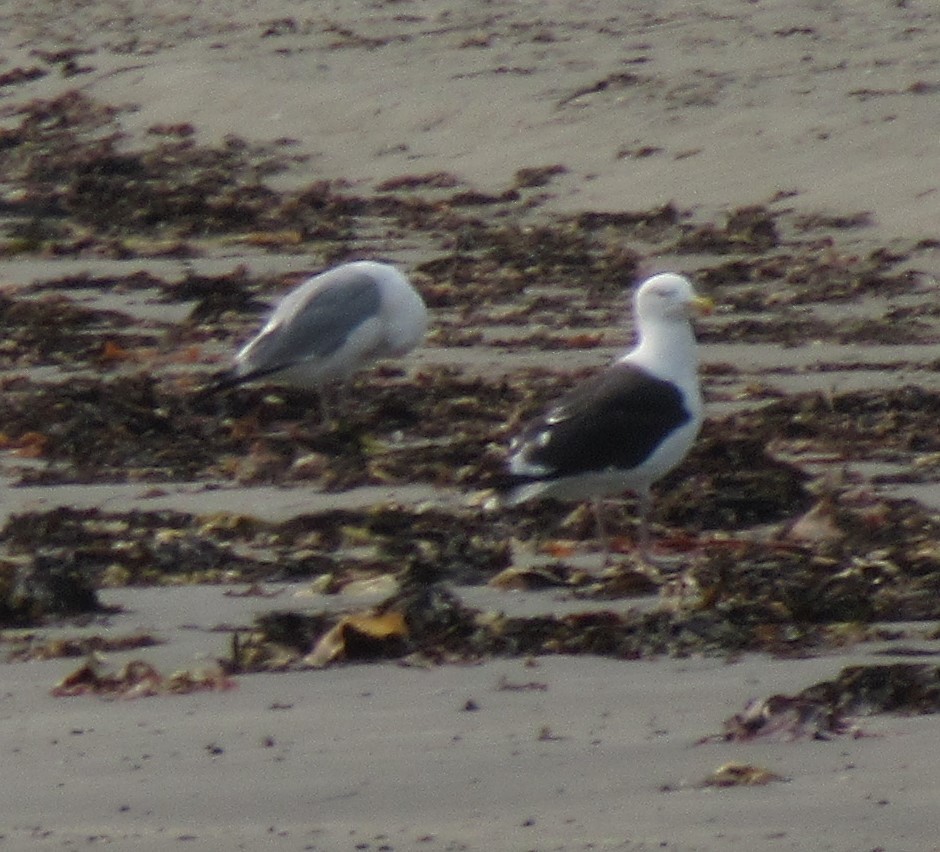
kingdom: Animalia
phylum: Chordata
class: Aves
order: Charadriiformes
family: Laridae
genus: Larus
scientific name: Larus marinus
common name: Great black-backed gull
